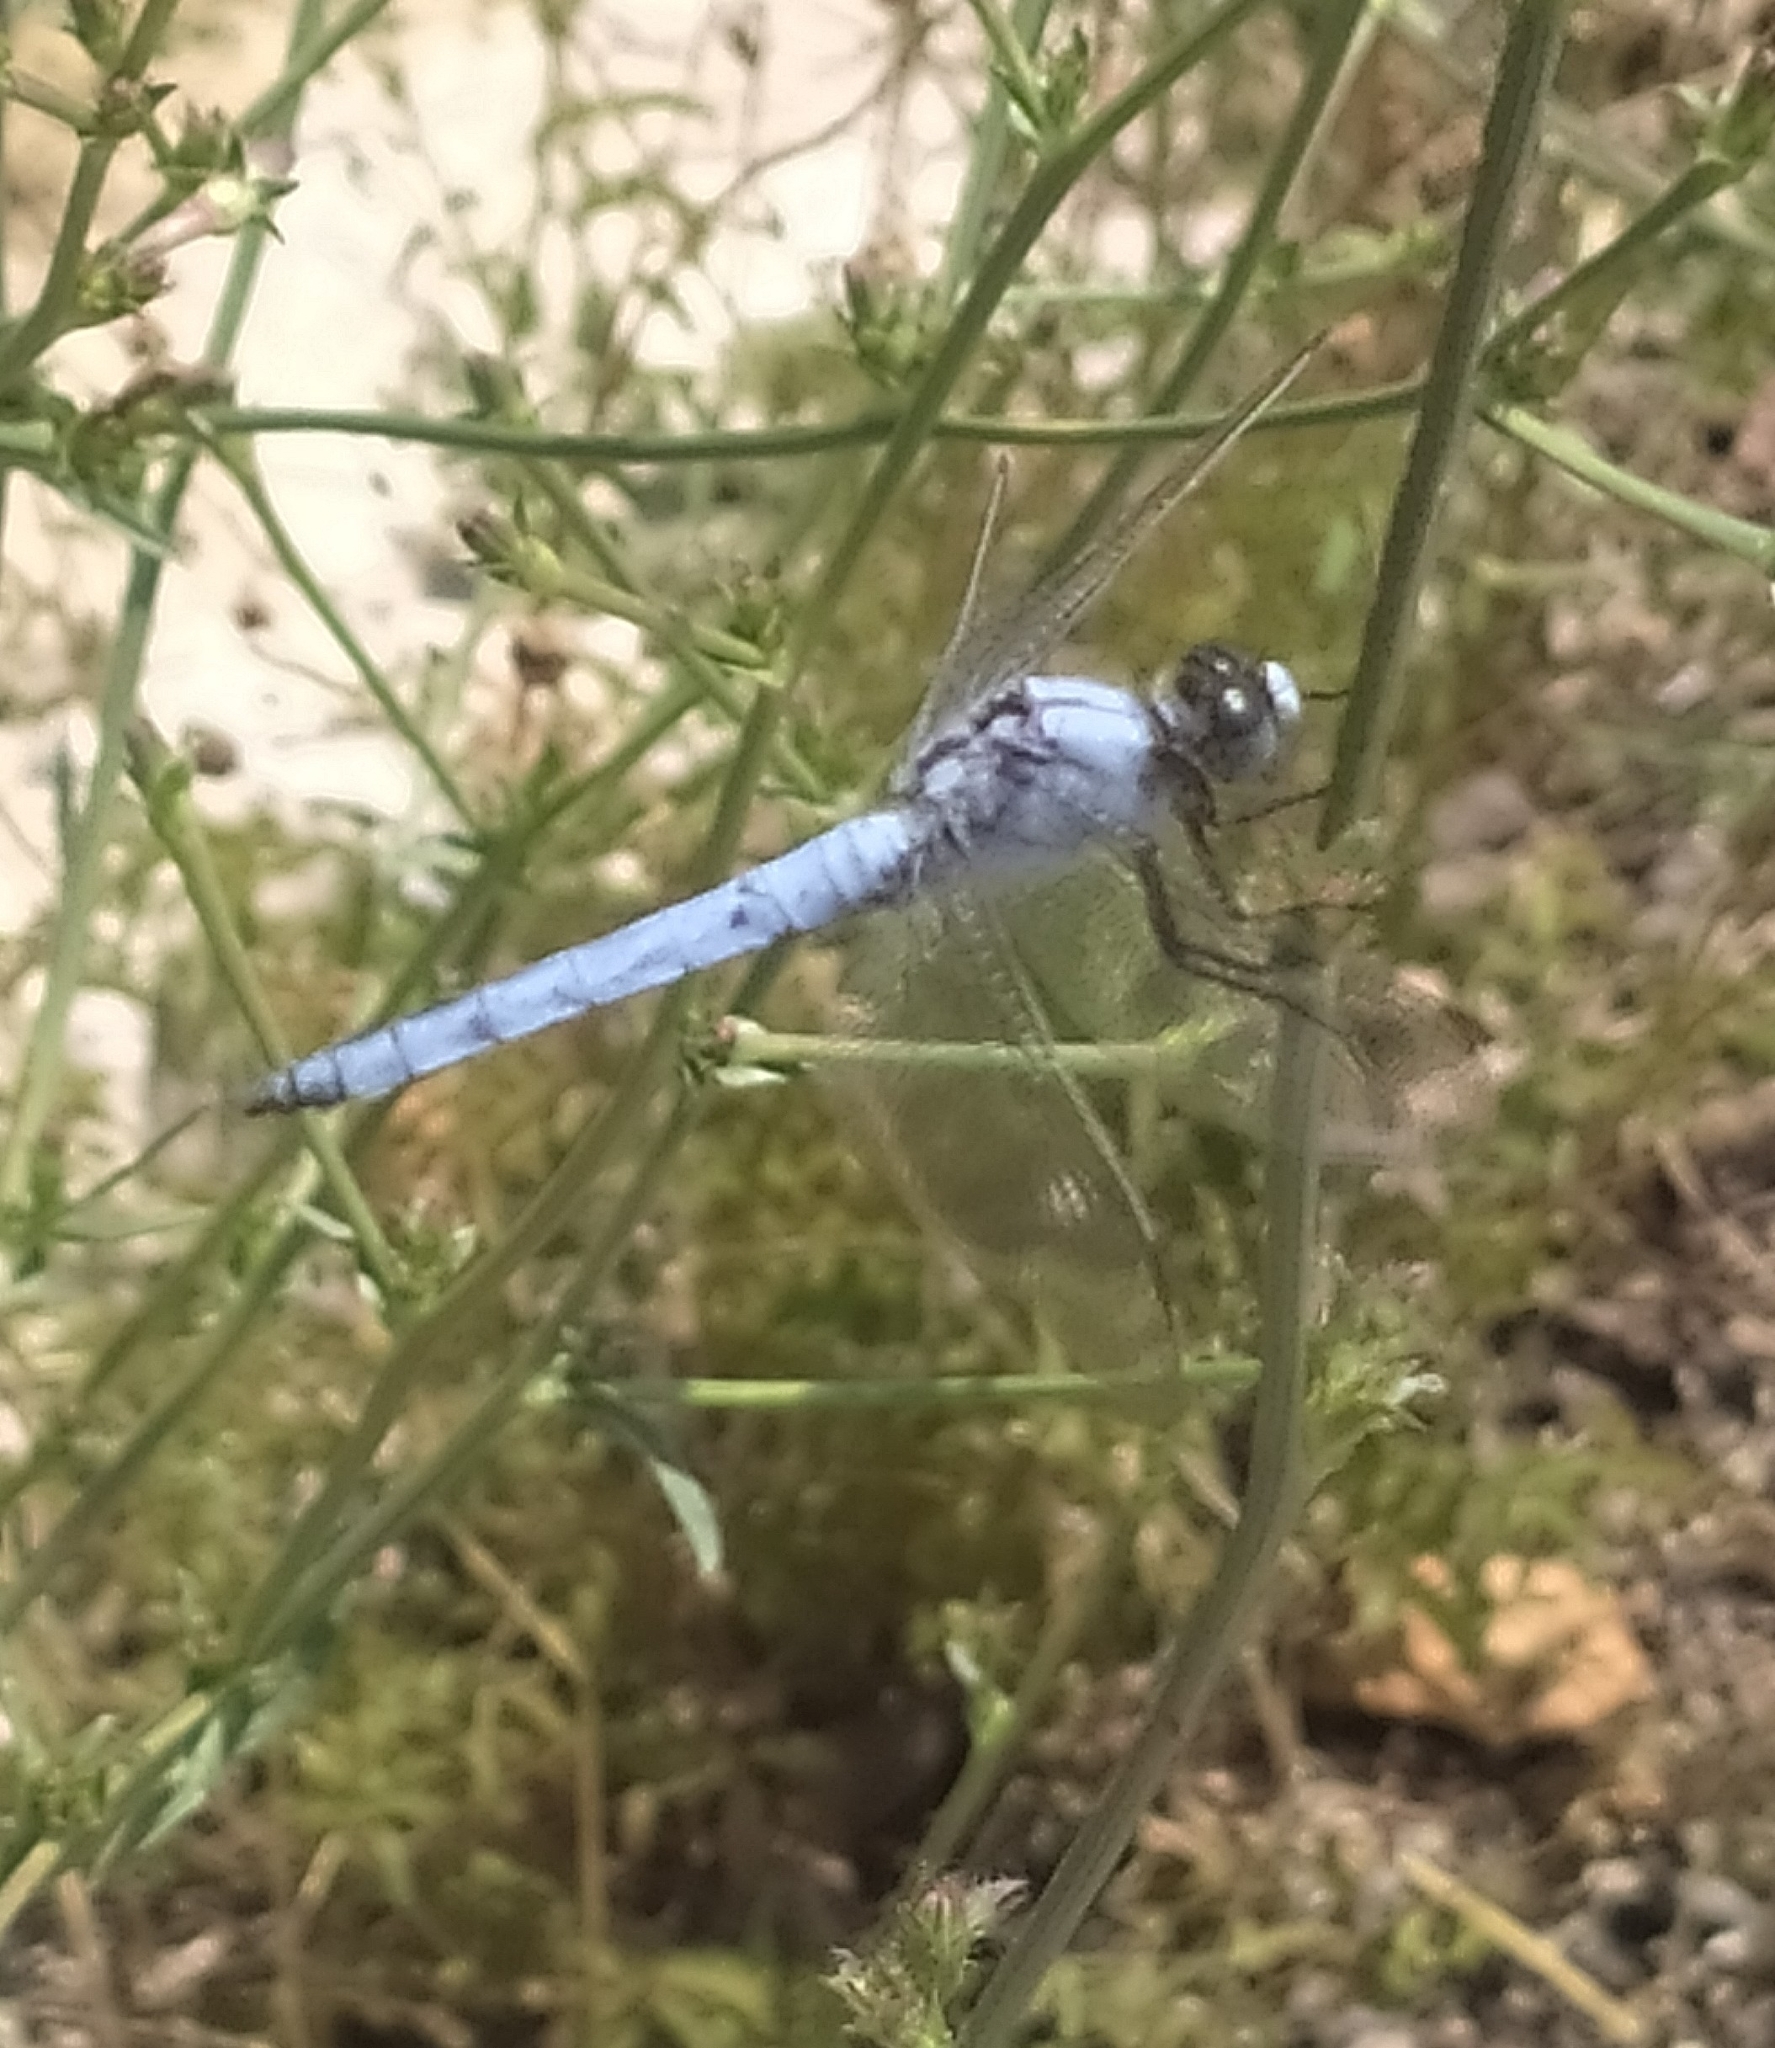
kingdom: Animalia
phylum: Arthropoda
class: Insecta
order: Odonata
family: Libellulidae
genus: Orthetrum
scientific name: Orthetrum brunneum
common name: Southern skimmer
